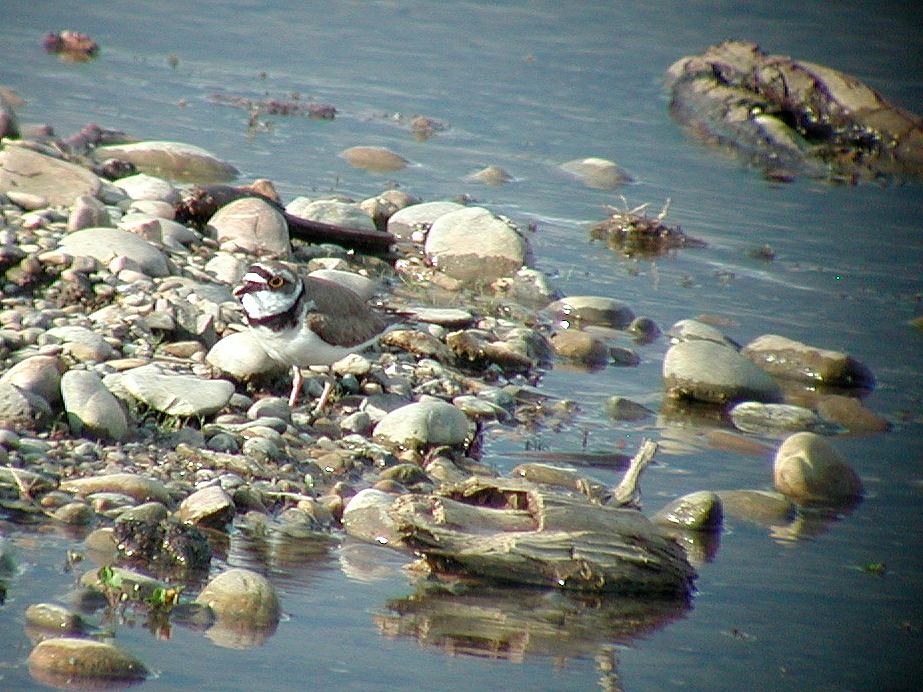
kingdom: Animalia
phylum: Chordata
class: Aves
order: Charadriiformes
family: Charadriidae
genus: Charadrius
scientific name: Charadrius dubius
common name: Little ringed plover
